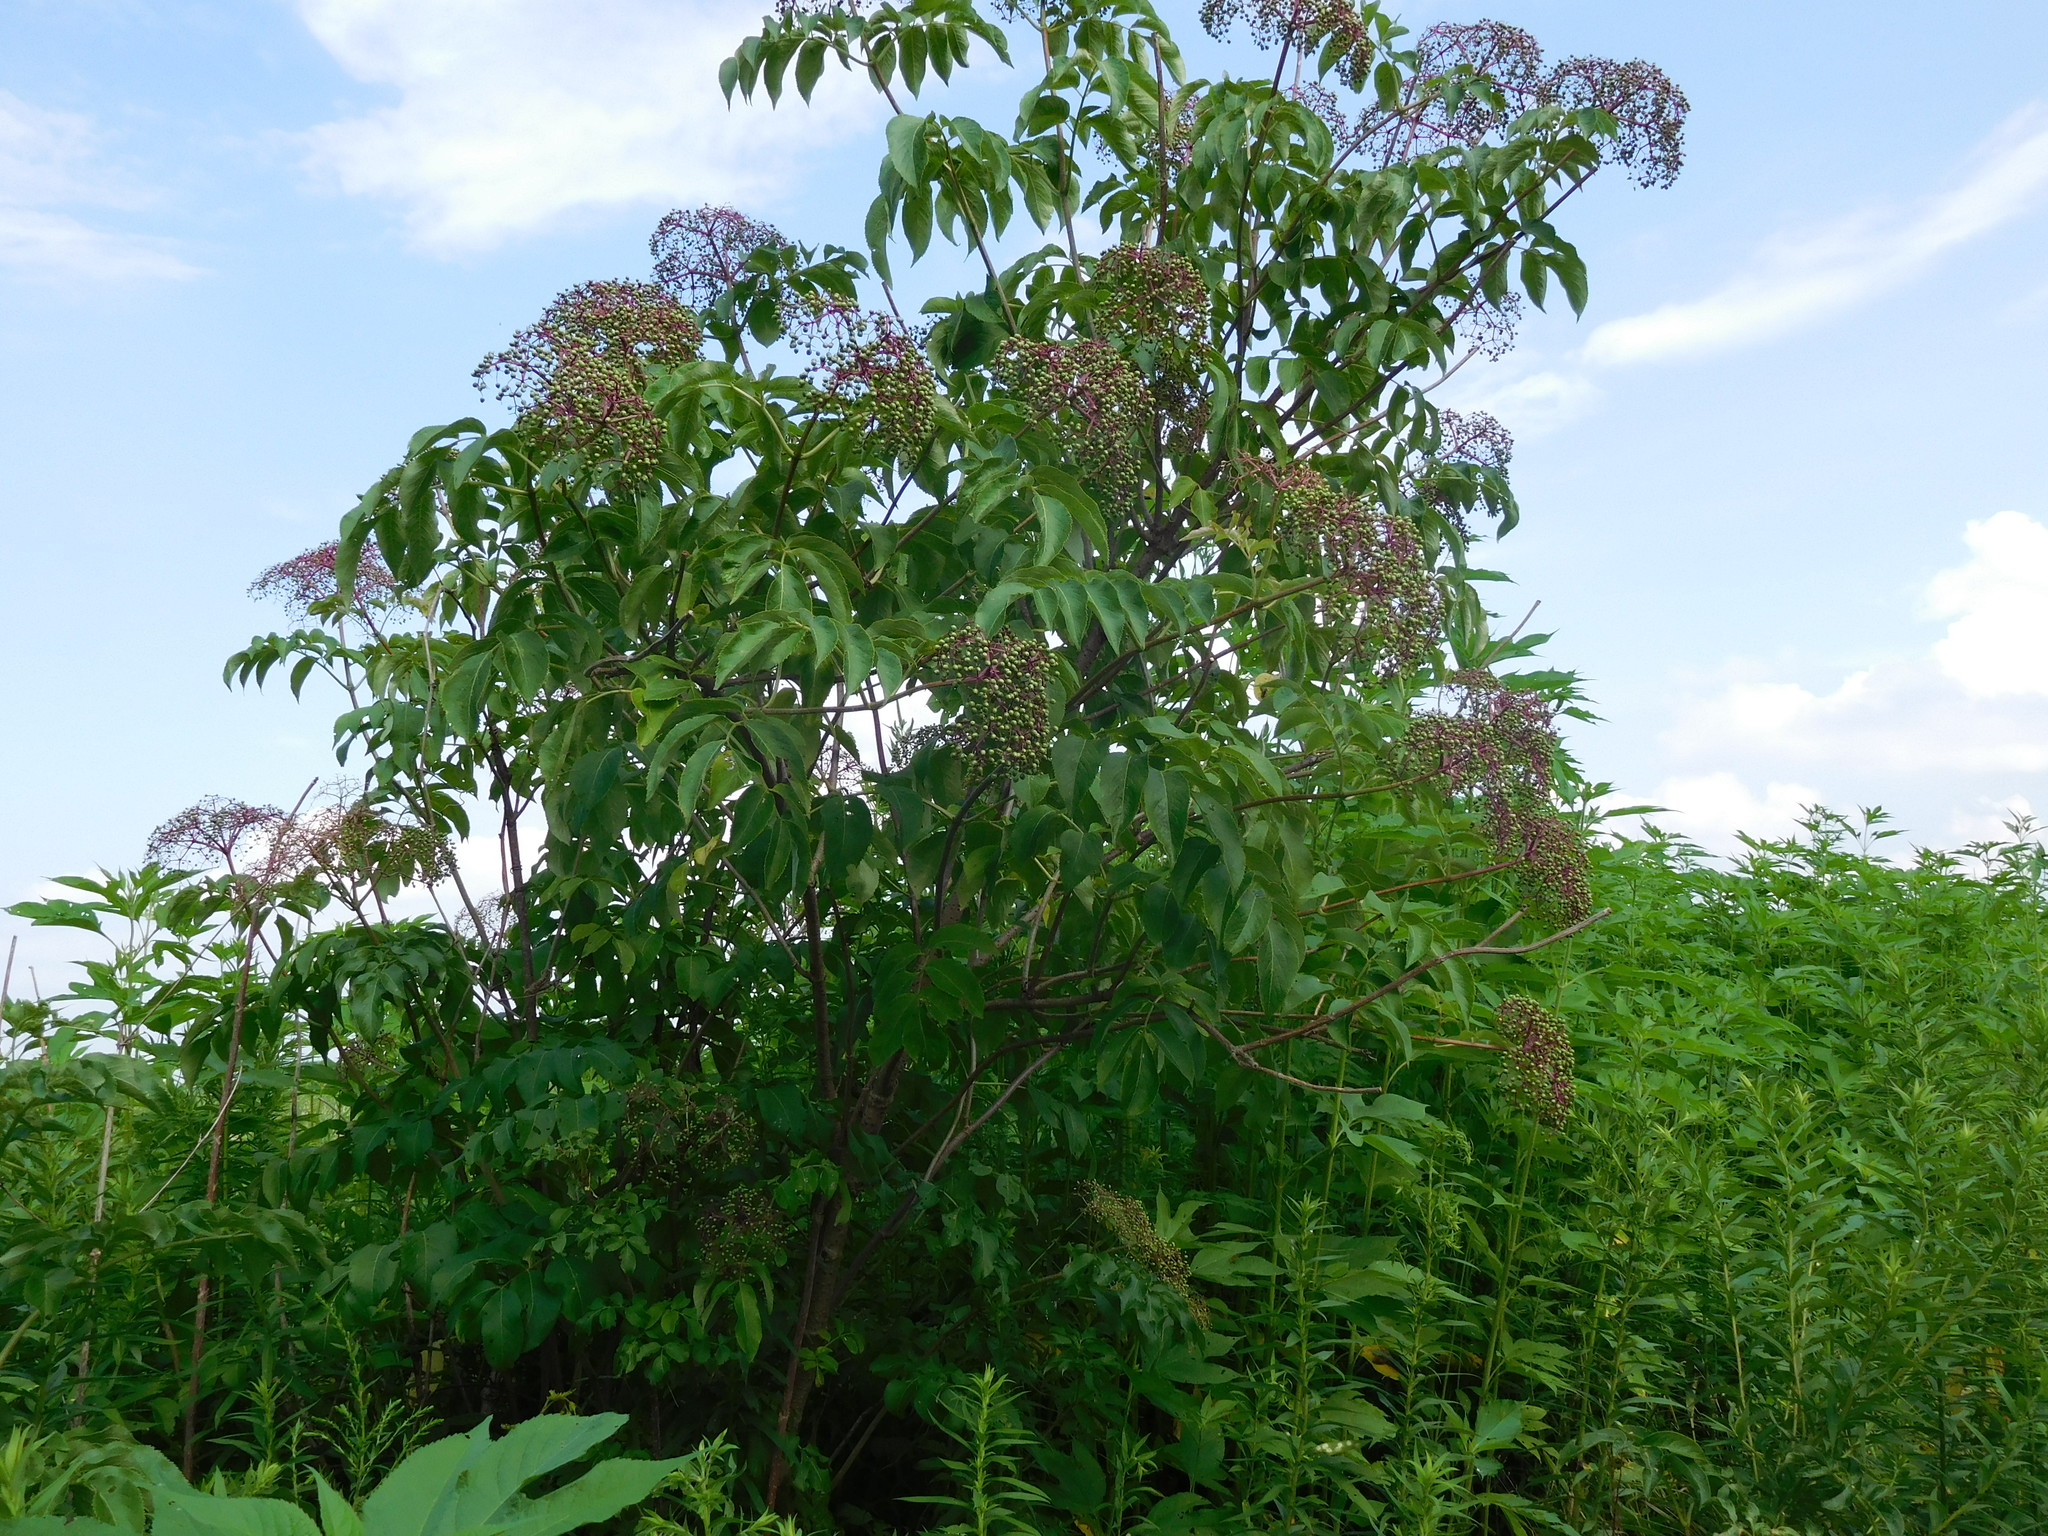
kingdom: Plantae
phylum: Tracheophyta
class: Magnoliopsida
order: Dipsacales
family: Viburnaceae
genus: Sambucus
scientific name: Sambucus canadensis
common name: American elder
